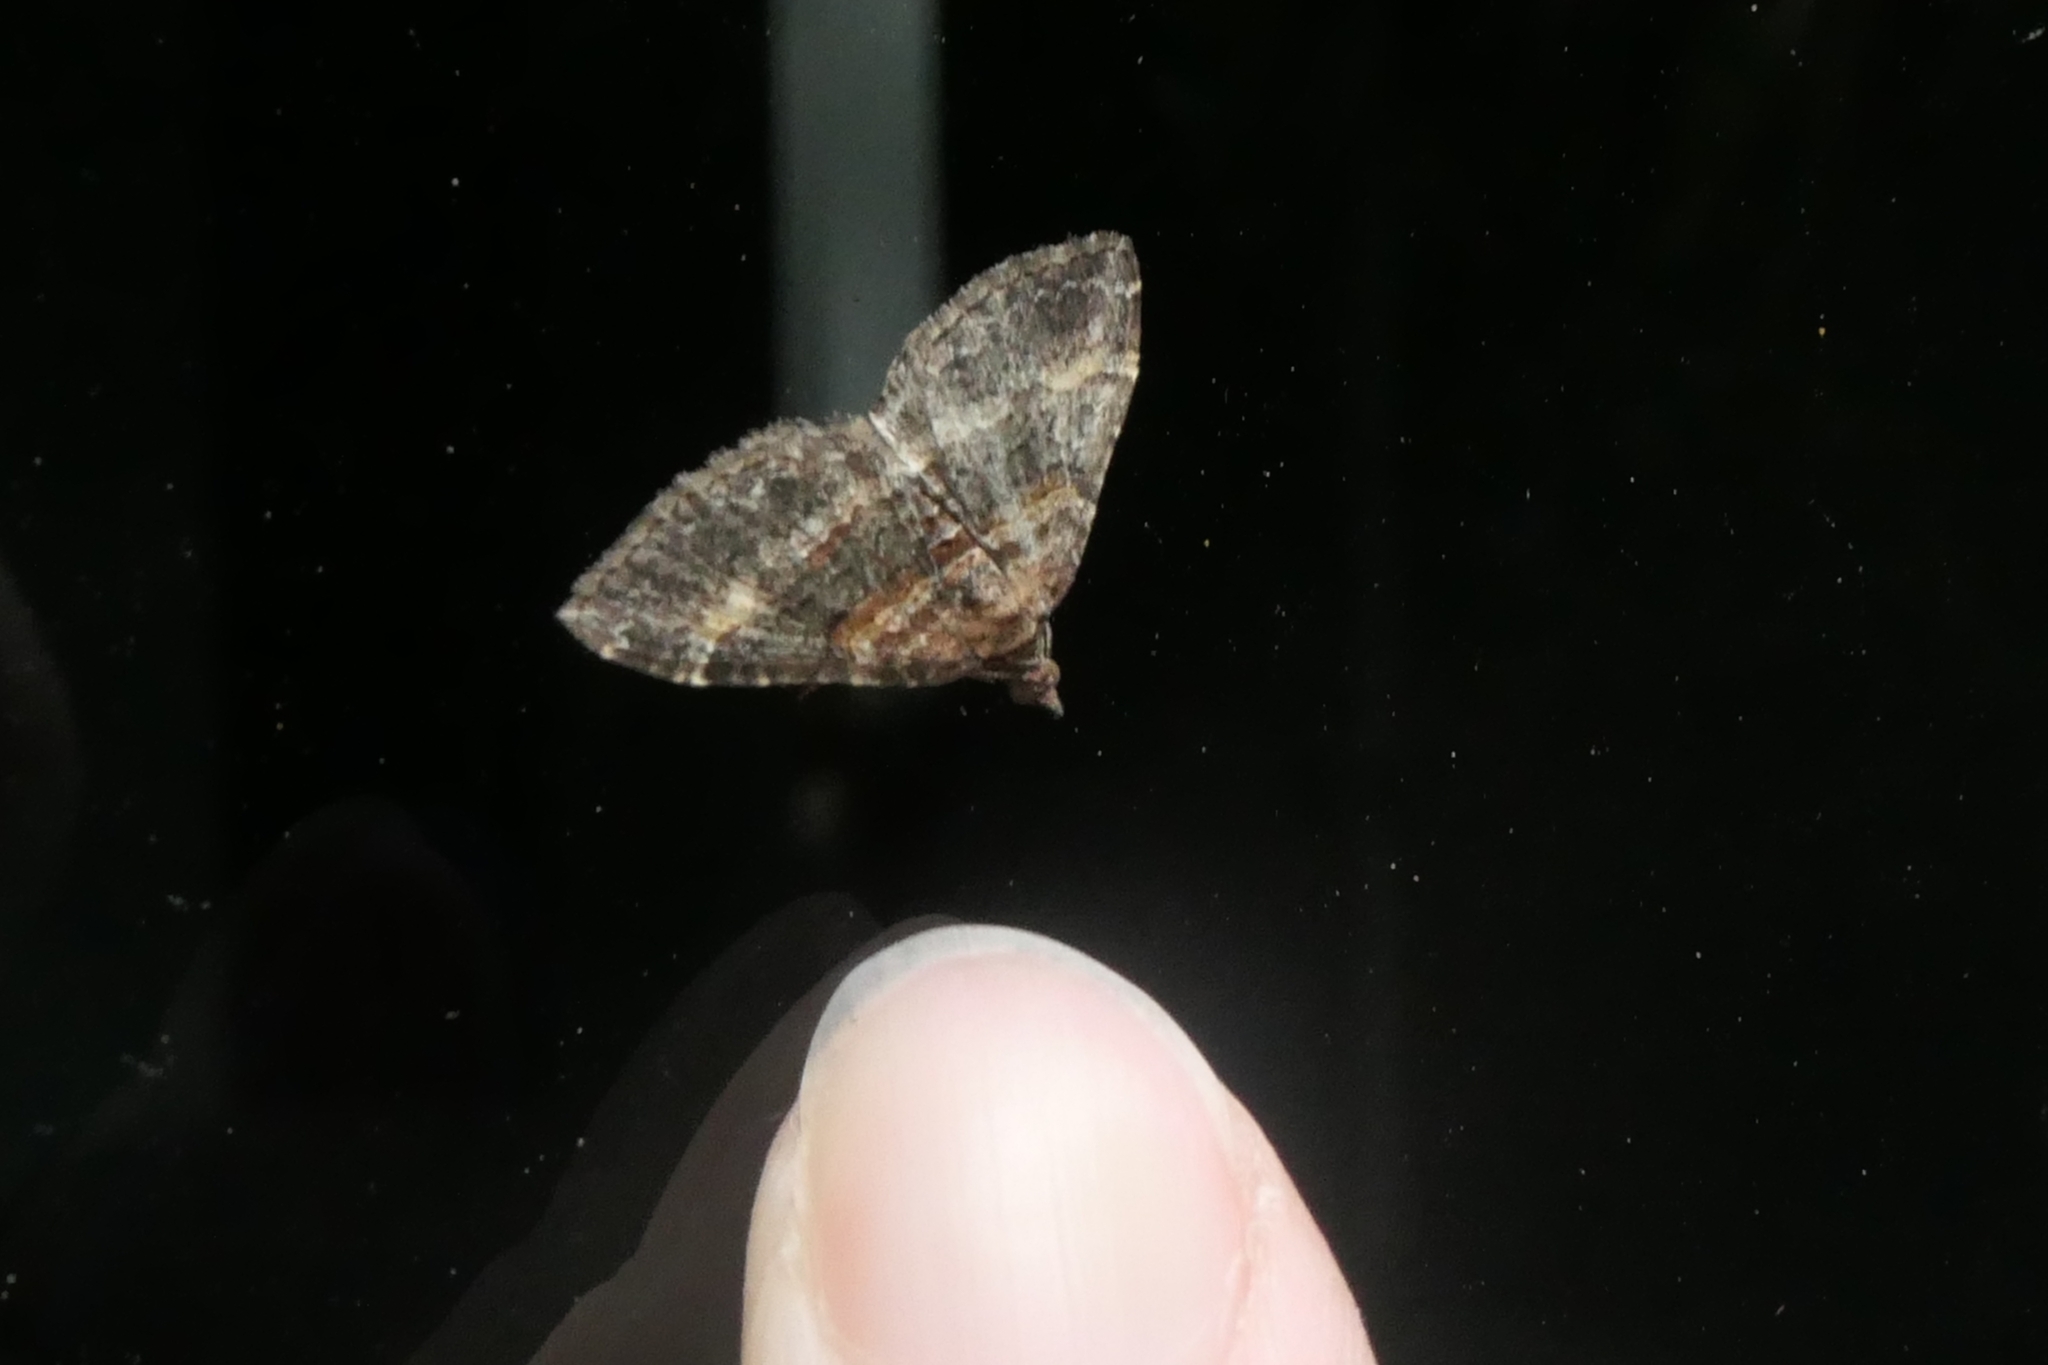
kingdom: Animalia
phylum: Arthropoda
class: Insecta
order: Lepidoptera
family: Geometridae
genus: Epyaxa
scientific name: Epyaxa lucidata
